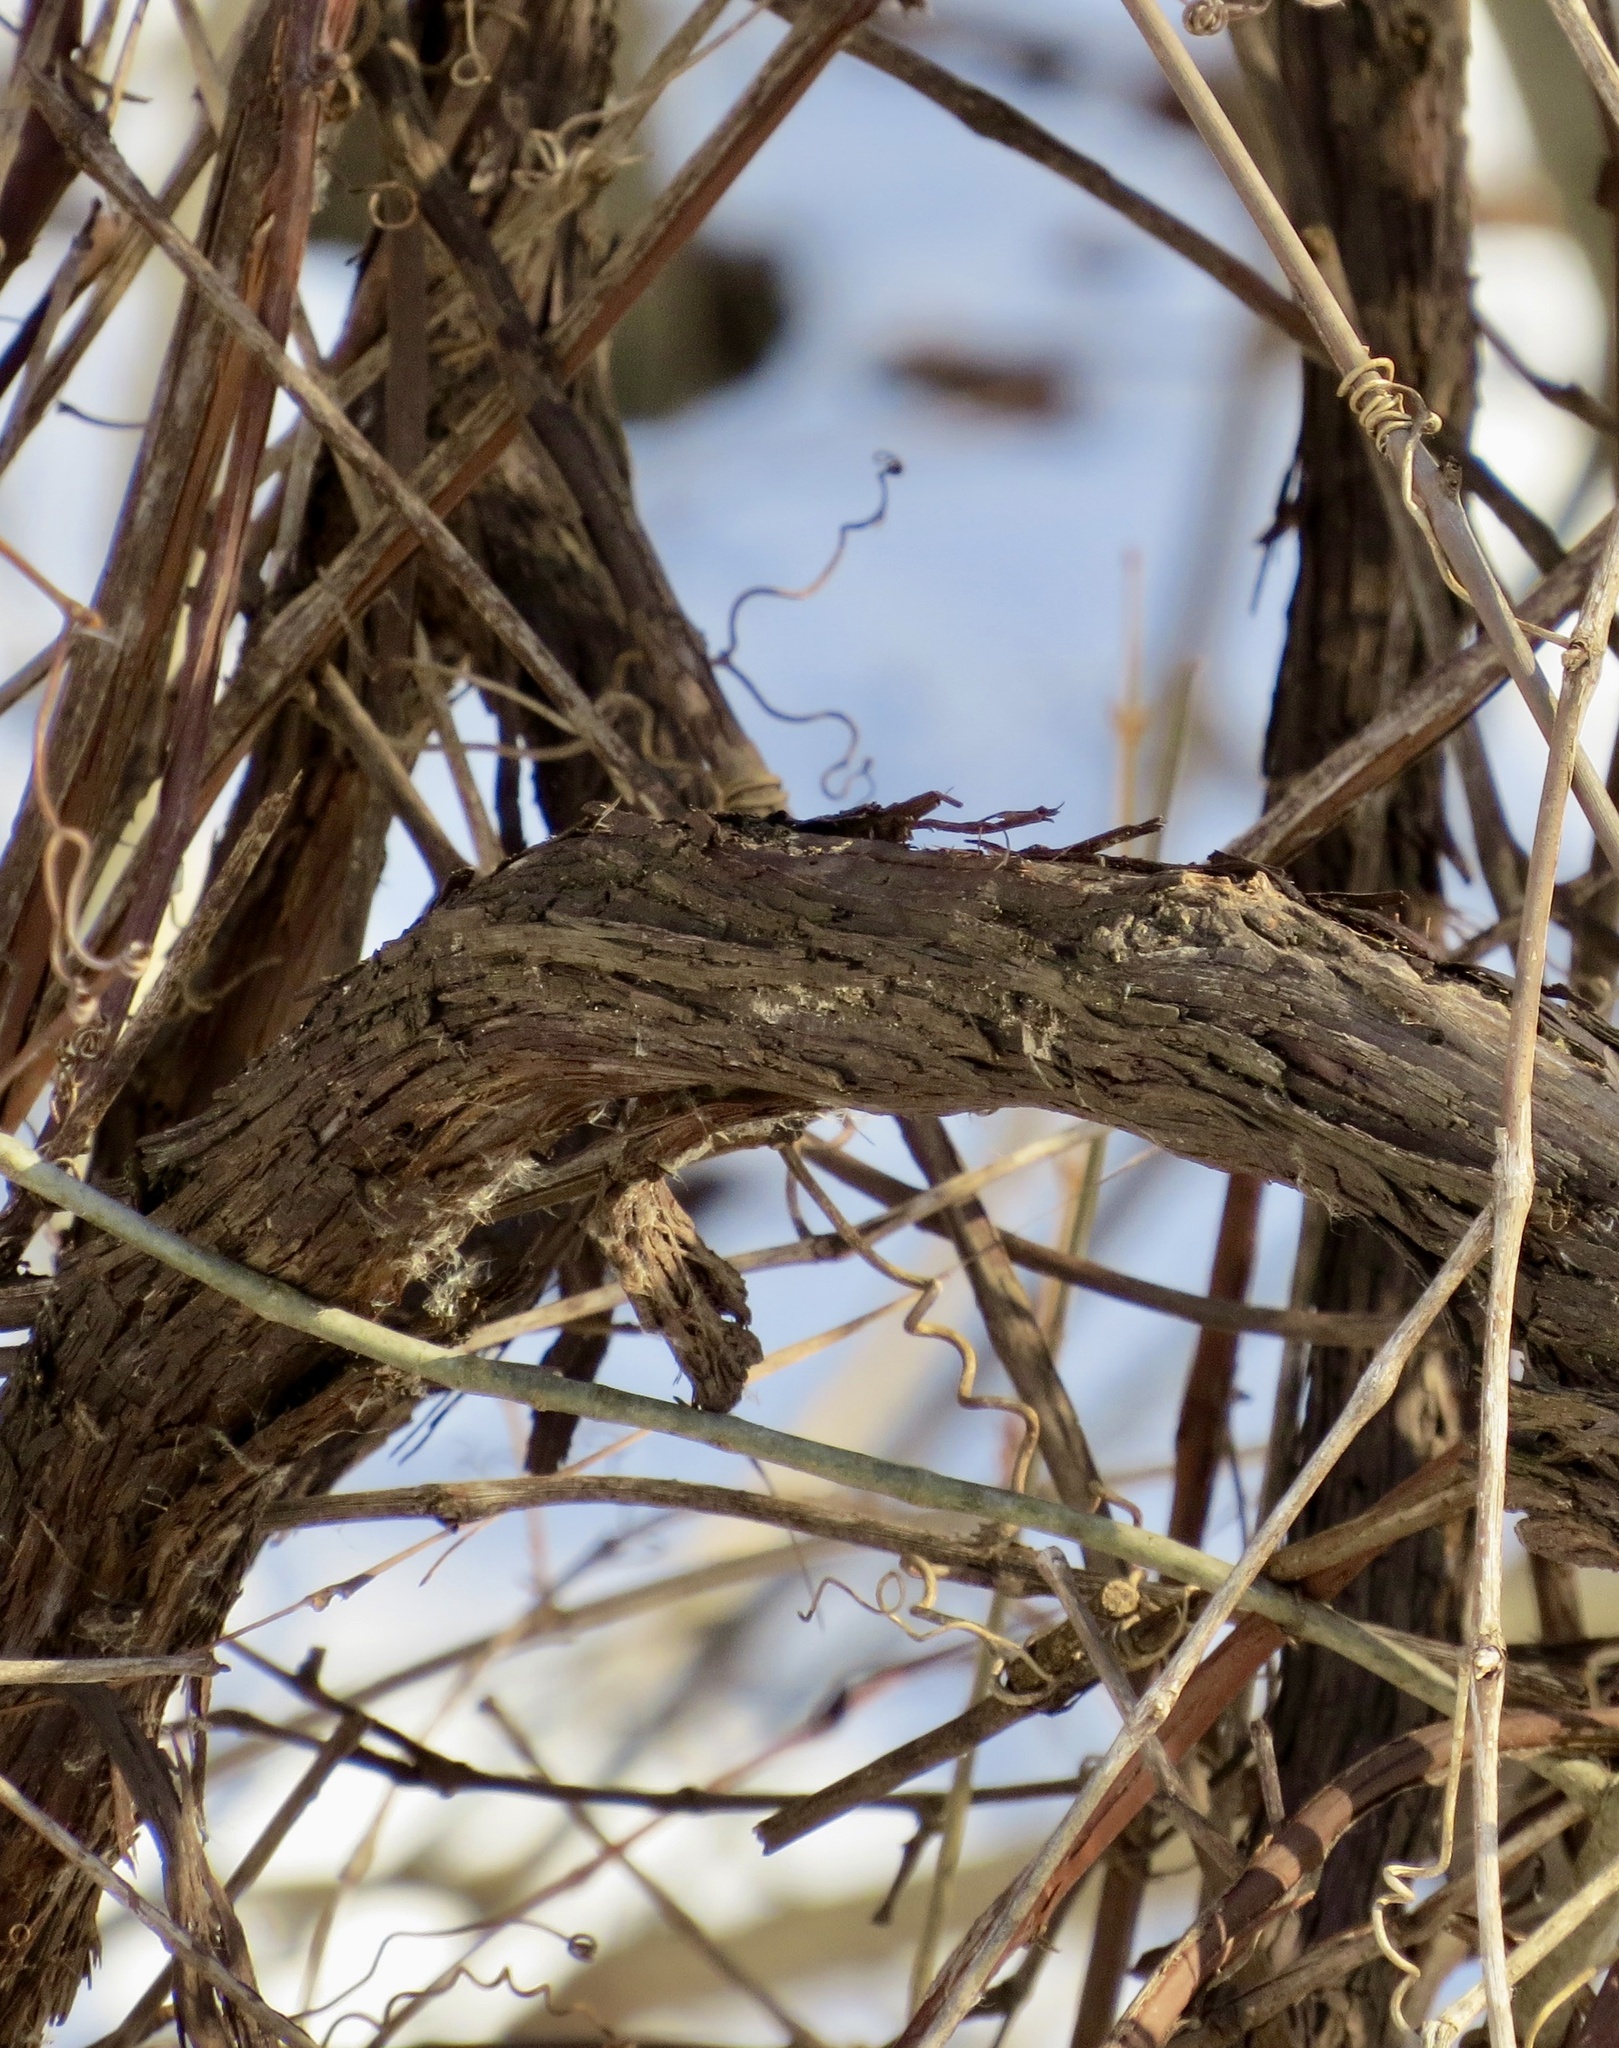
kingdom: Plantae
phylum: Tracheophyta
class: Magnoliopsida
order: Vitales
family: Vitaceae
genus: Vitis
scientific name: Vitis
